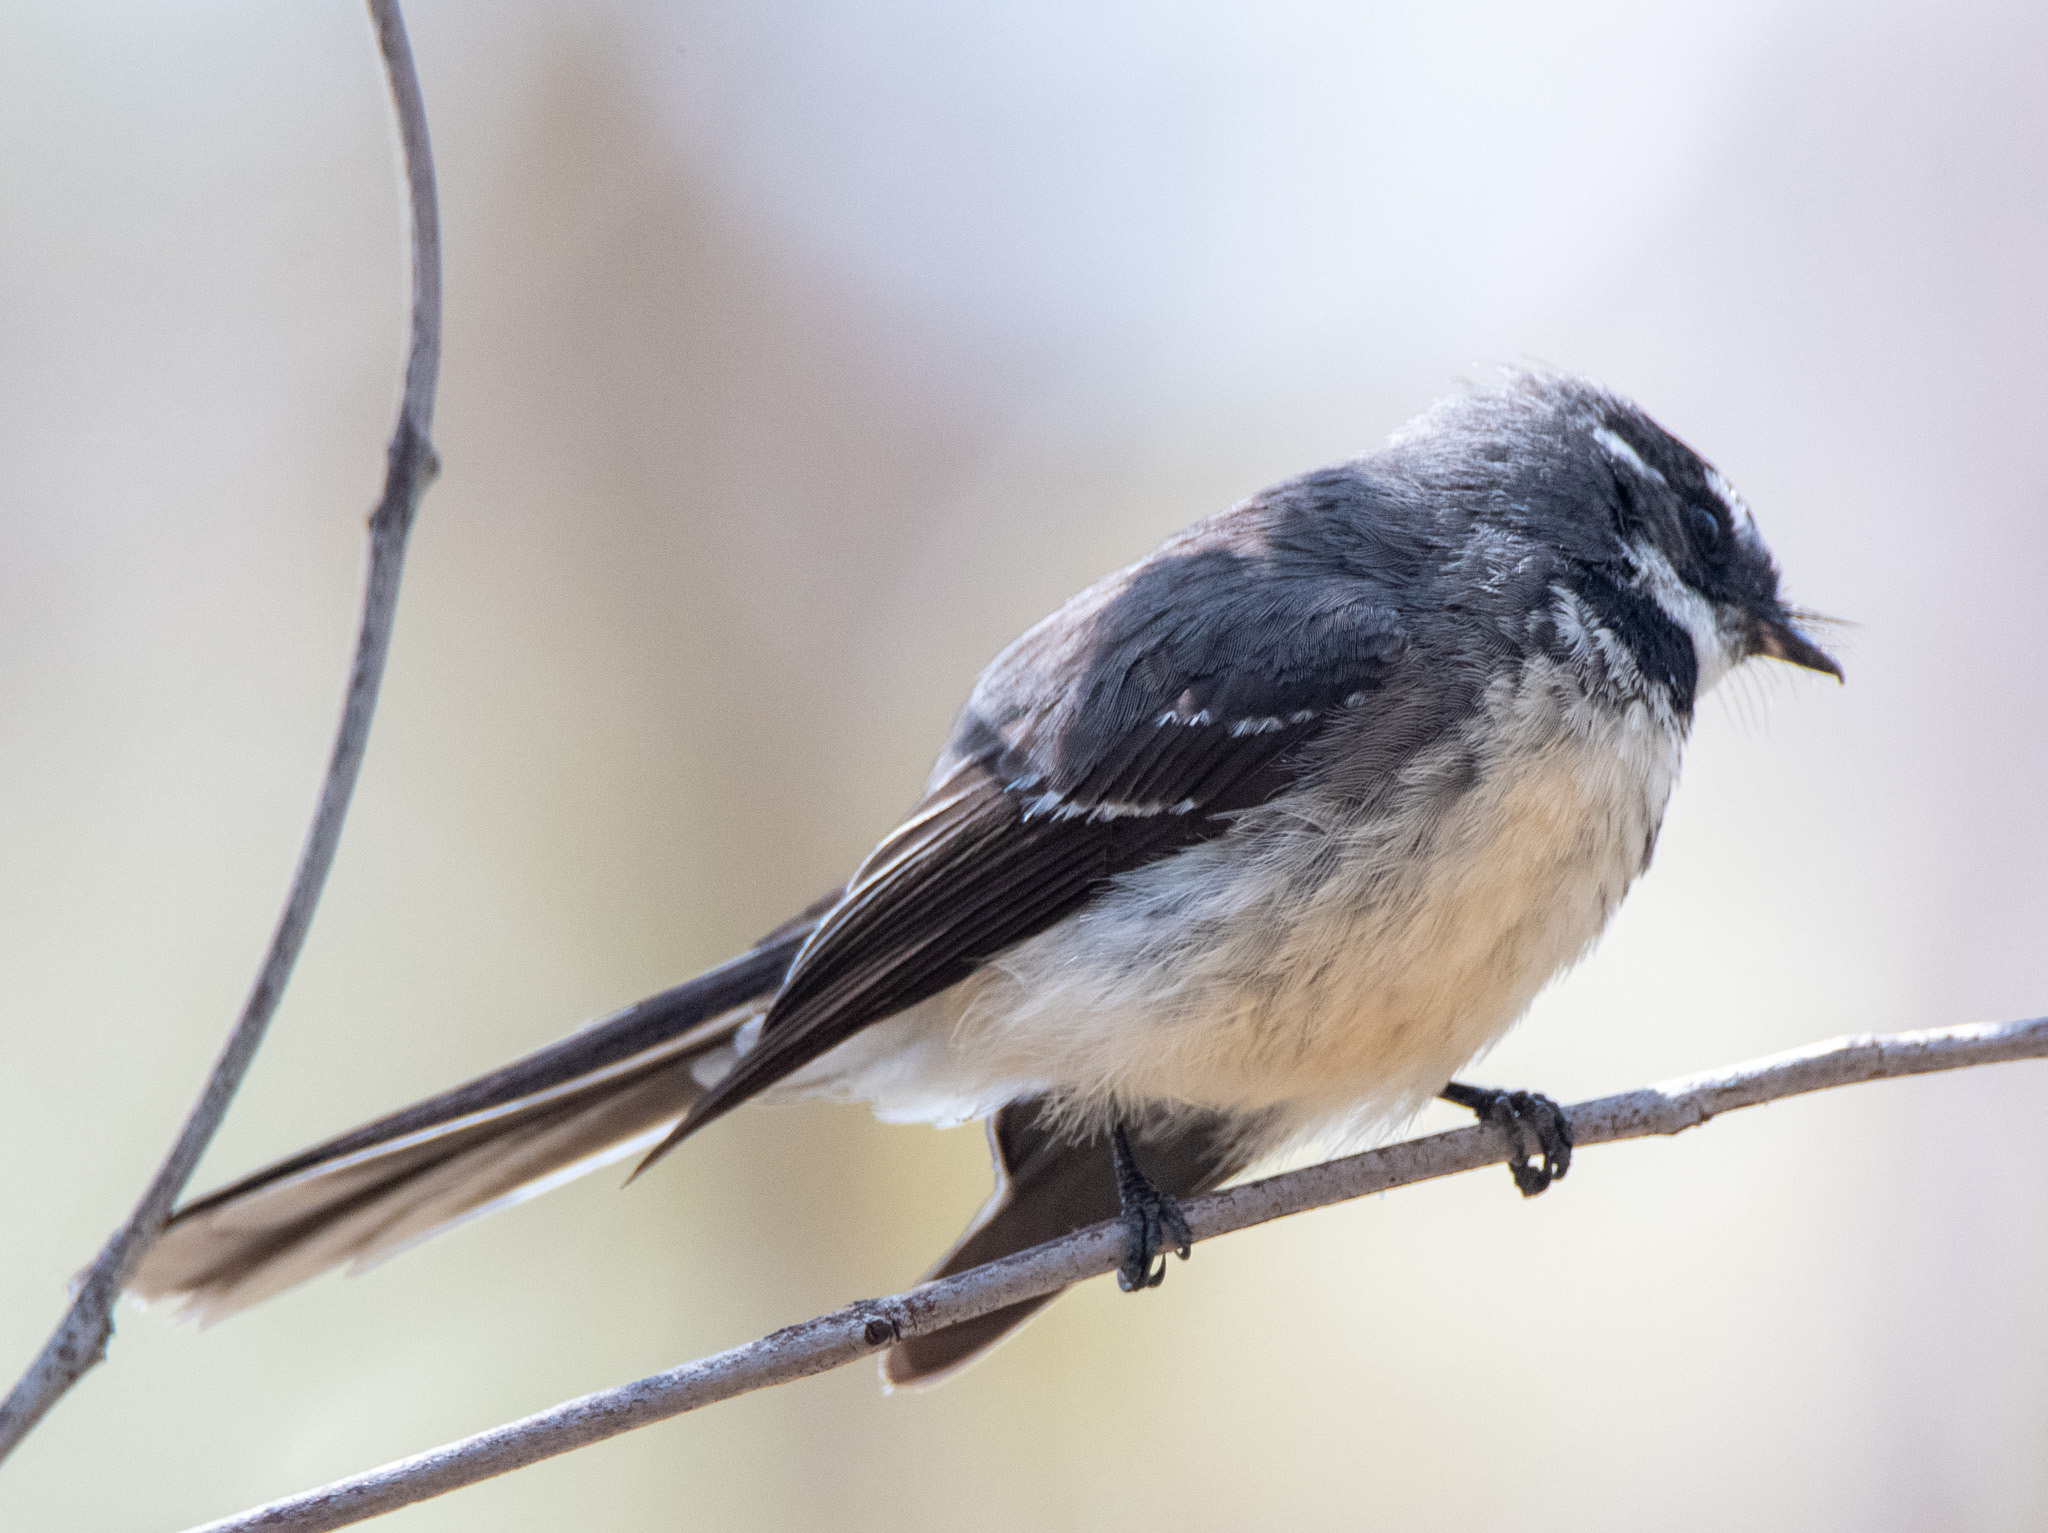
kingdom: Animalia
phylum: Chordata
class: Aves
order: Passeriformes
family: Rhipiduridae
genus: Rhipidura
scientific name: Rhipidura albiscapa
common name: Grey fantail
